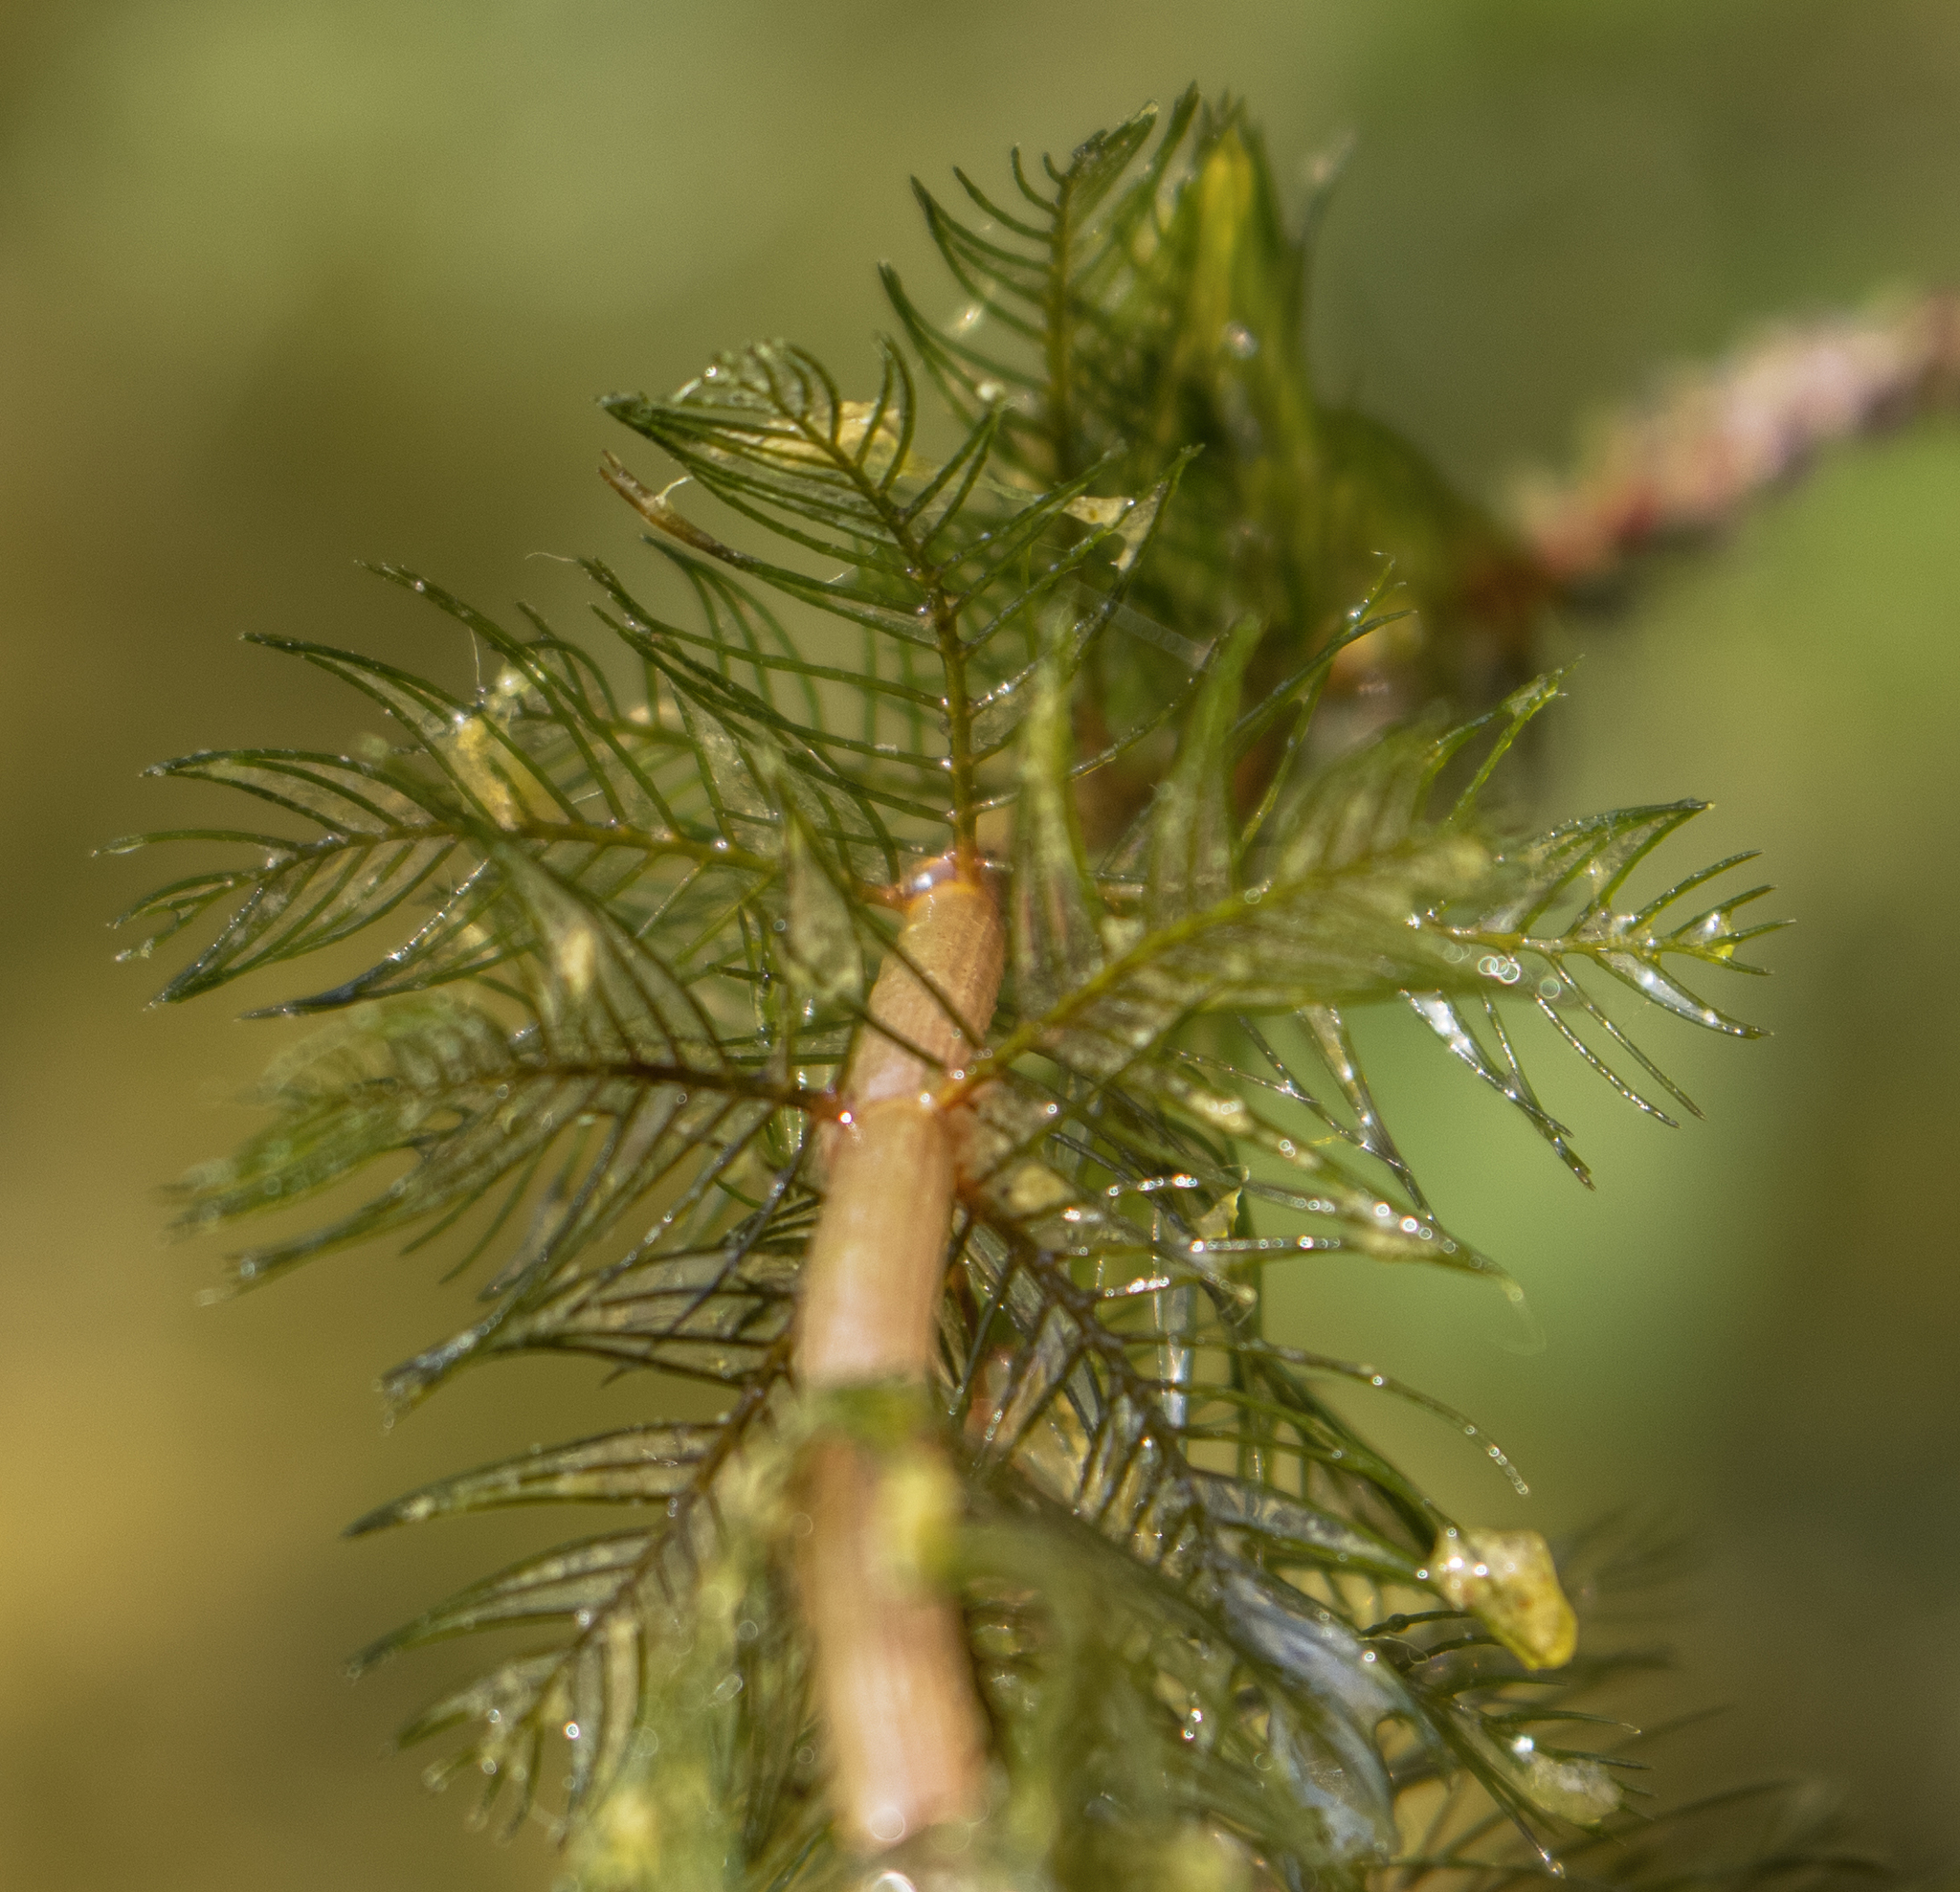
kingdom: Plantae
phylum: Tracheophyta
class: Magnoliopsida
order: Saxifragales
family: Haloragaceae
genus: Myriophyllum
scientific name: Myriophyllum spicatum
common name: Spiked water-milfoil
